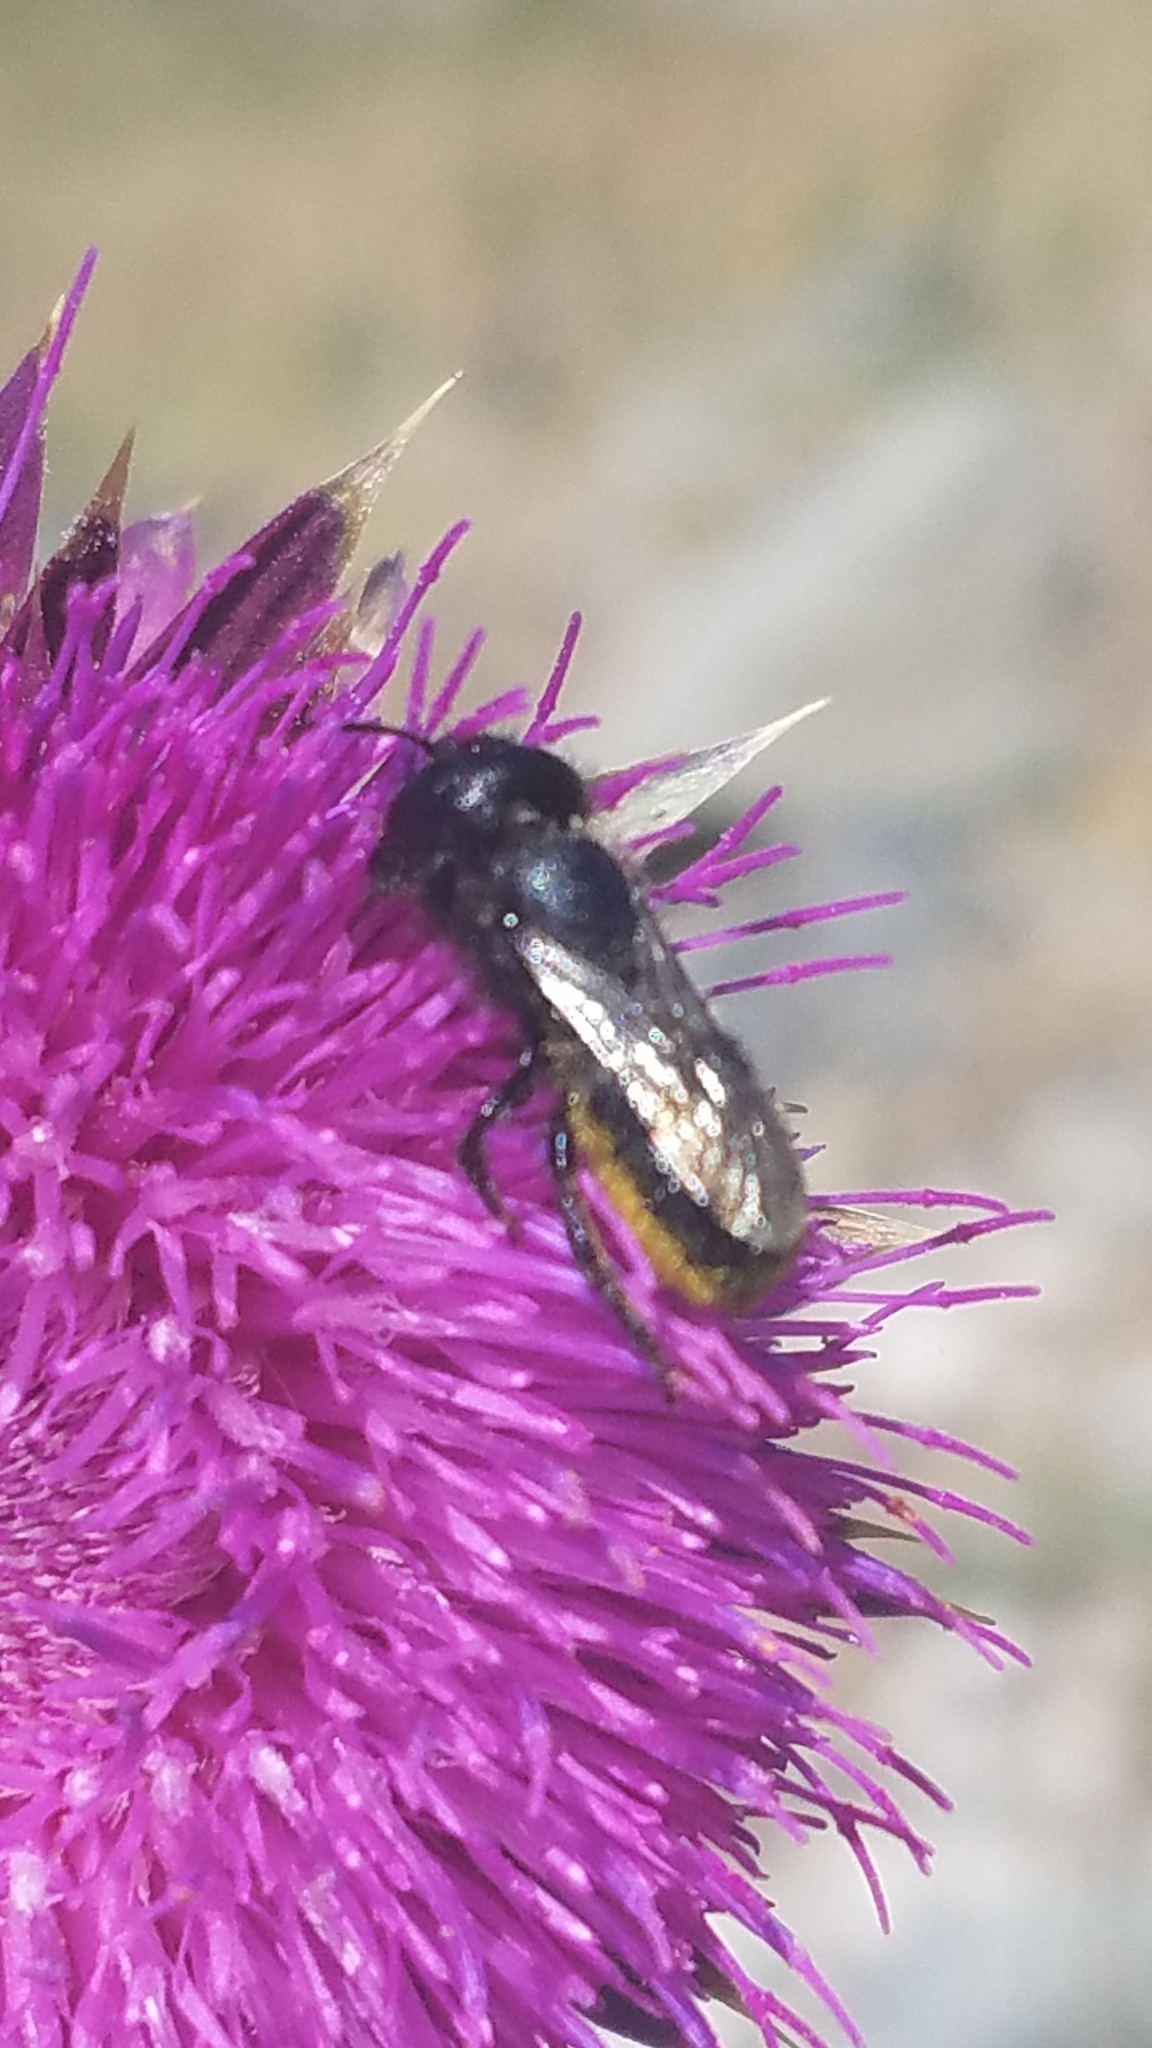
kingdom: Animalia
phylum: Arthropoda
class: Insecta
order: Hymenoptera
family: Megachilidae
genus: Osmia
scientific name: Osmia montana
